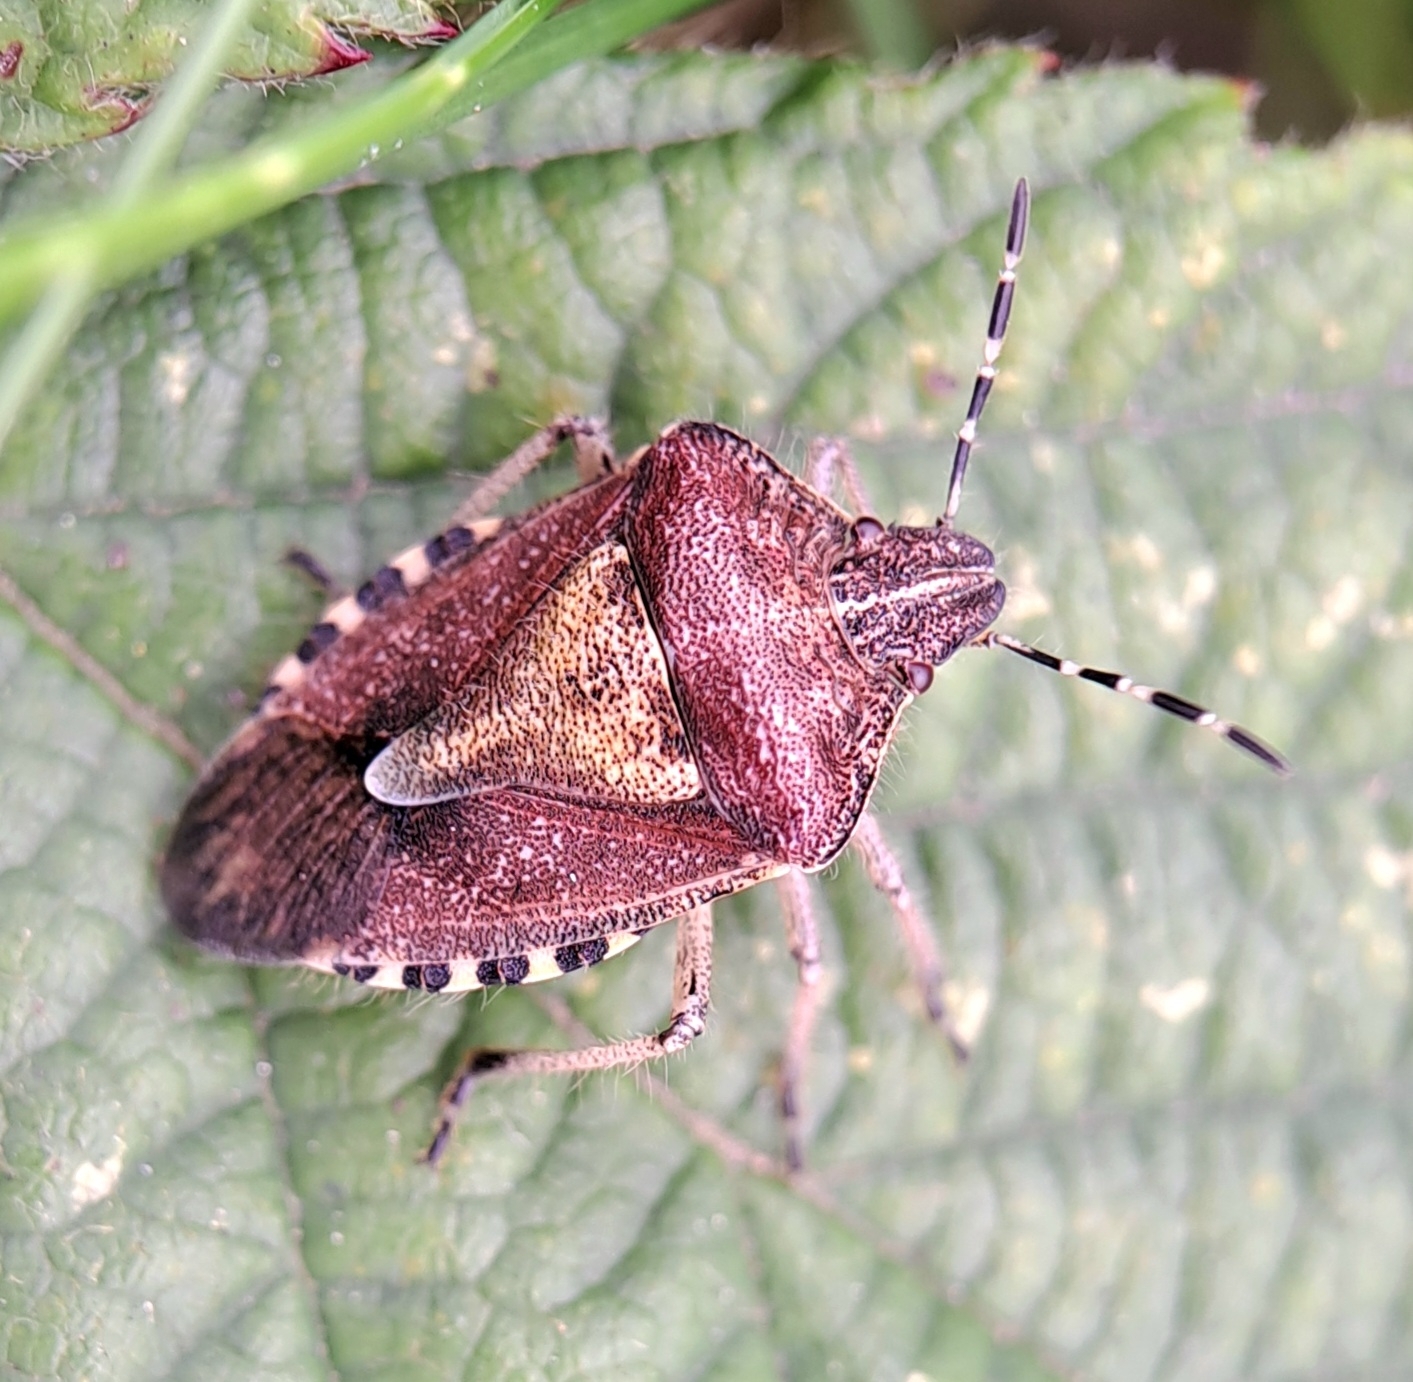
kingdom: Animalia
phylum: Arthropoda
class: Insecta
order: Hemiptera
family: Pentatomidae
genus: Dolycoris
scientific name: Dolycoris baccarum
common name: Sloe bug
